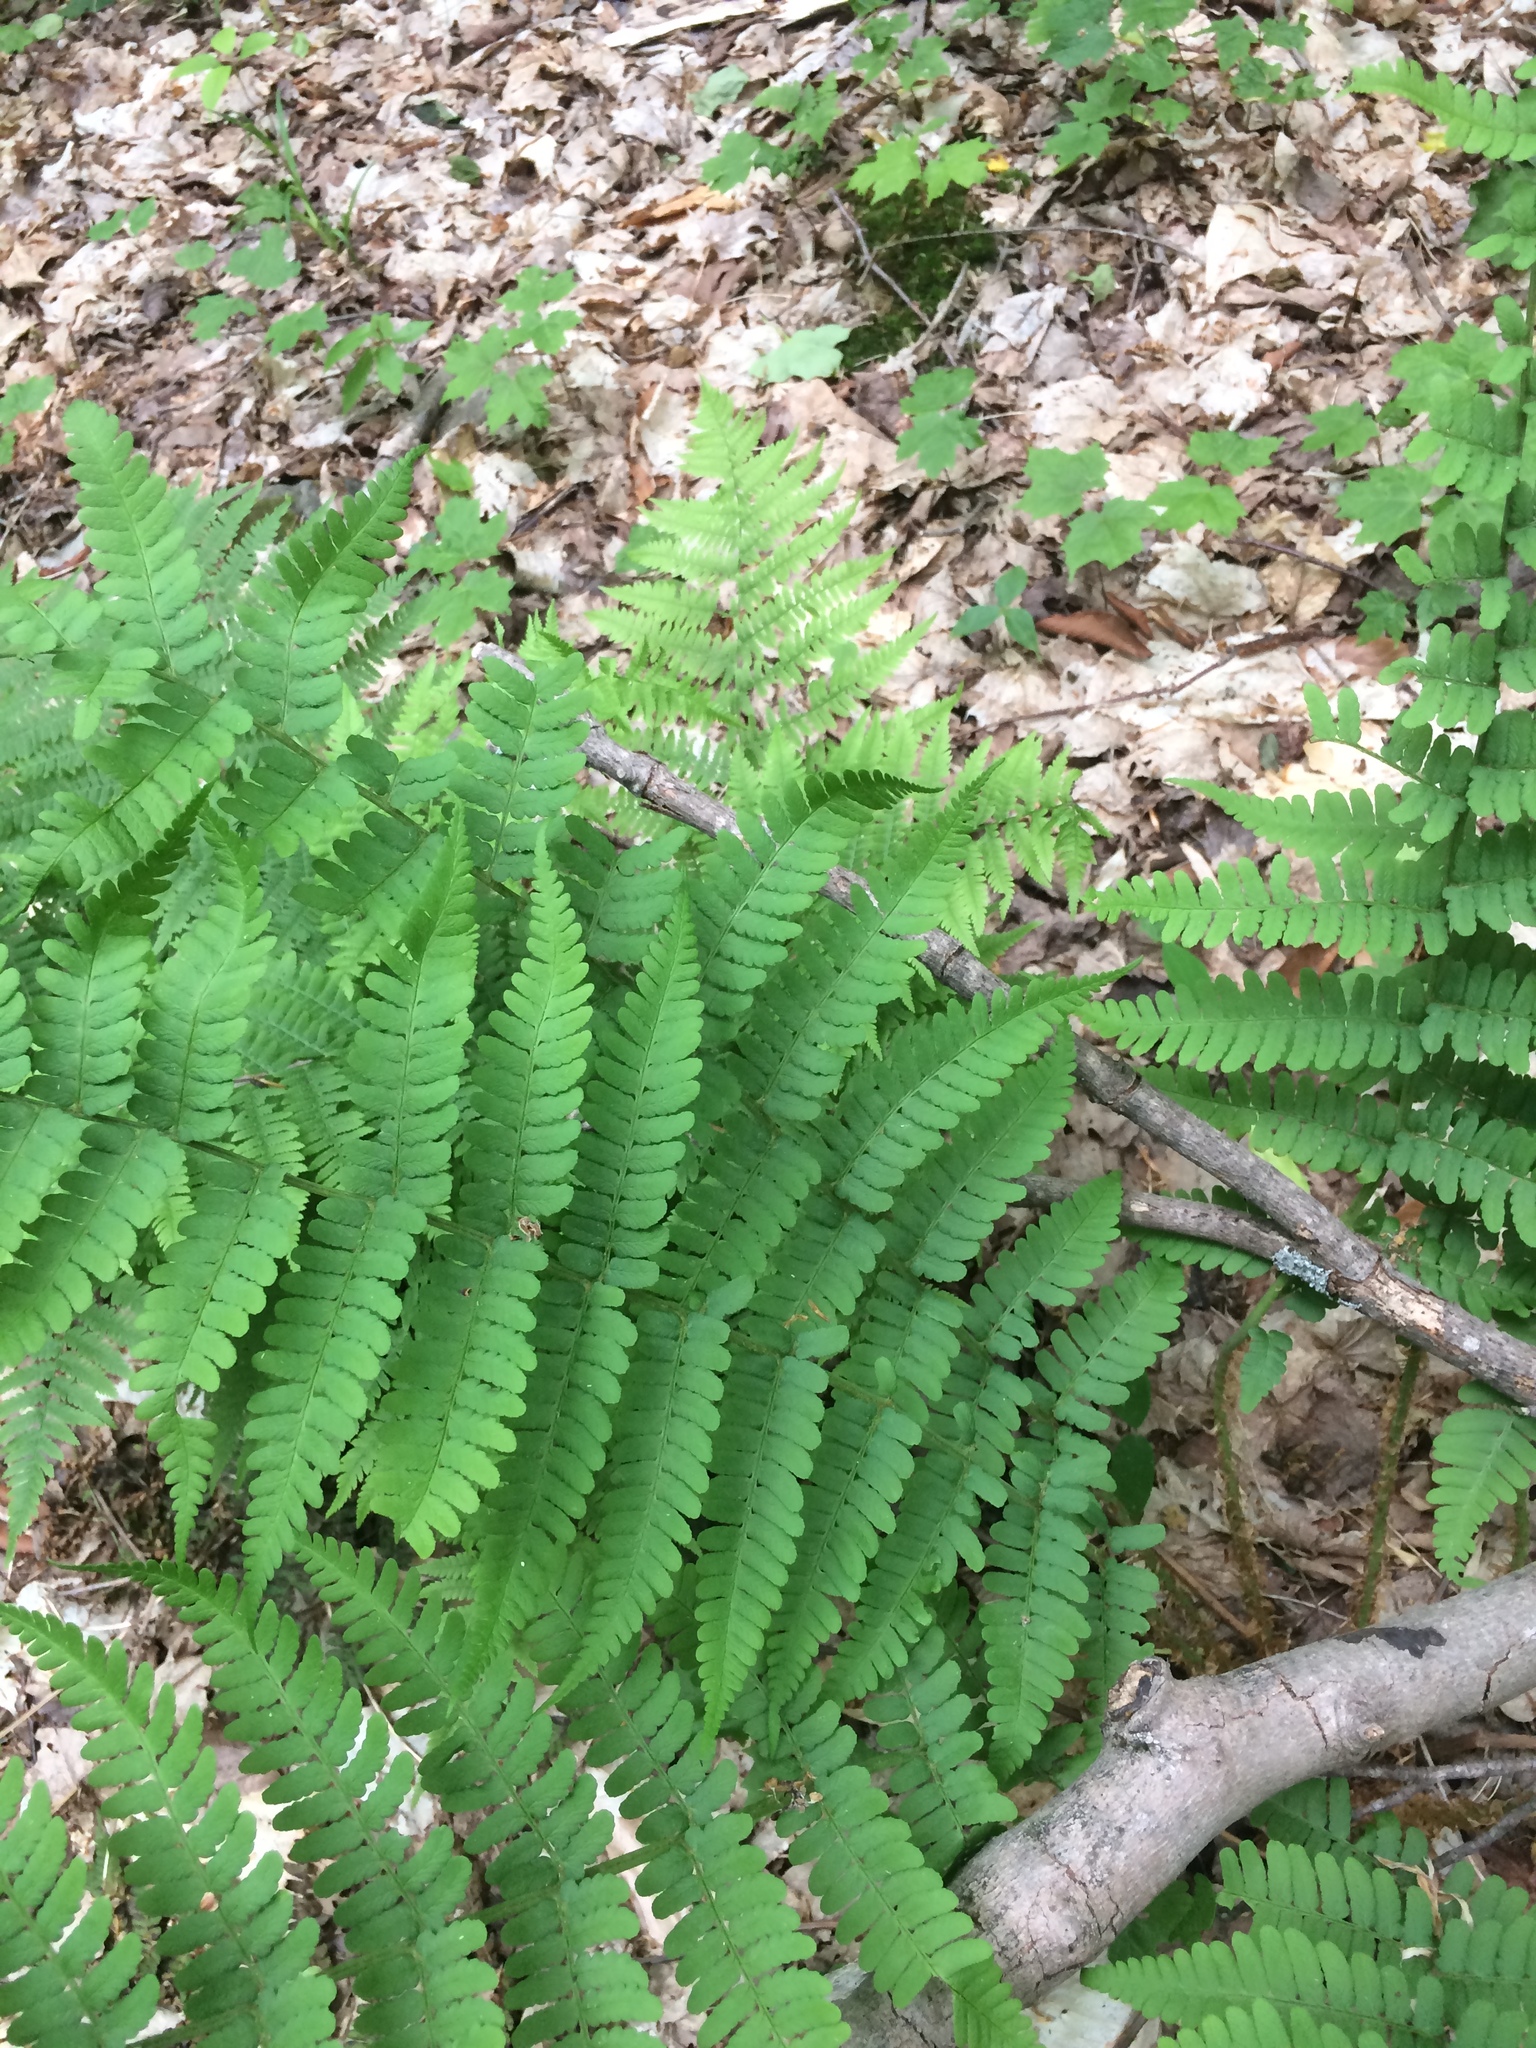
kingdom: Plantae
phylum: Tracheophyta
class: Polypodiopsida
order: Polypodiales
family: Dryopteridaceae
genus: Dryopteris
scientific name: Dryopteris marginalis
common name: Marginal wood fern
